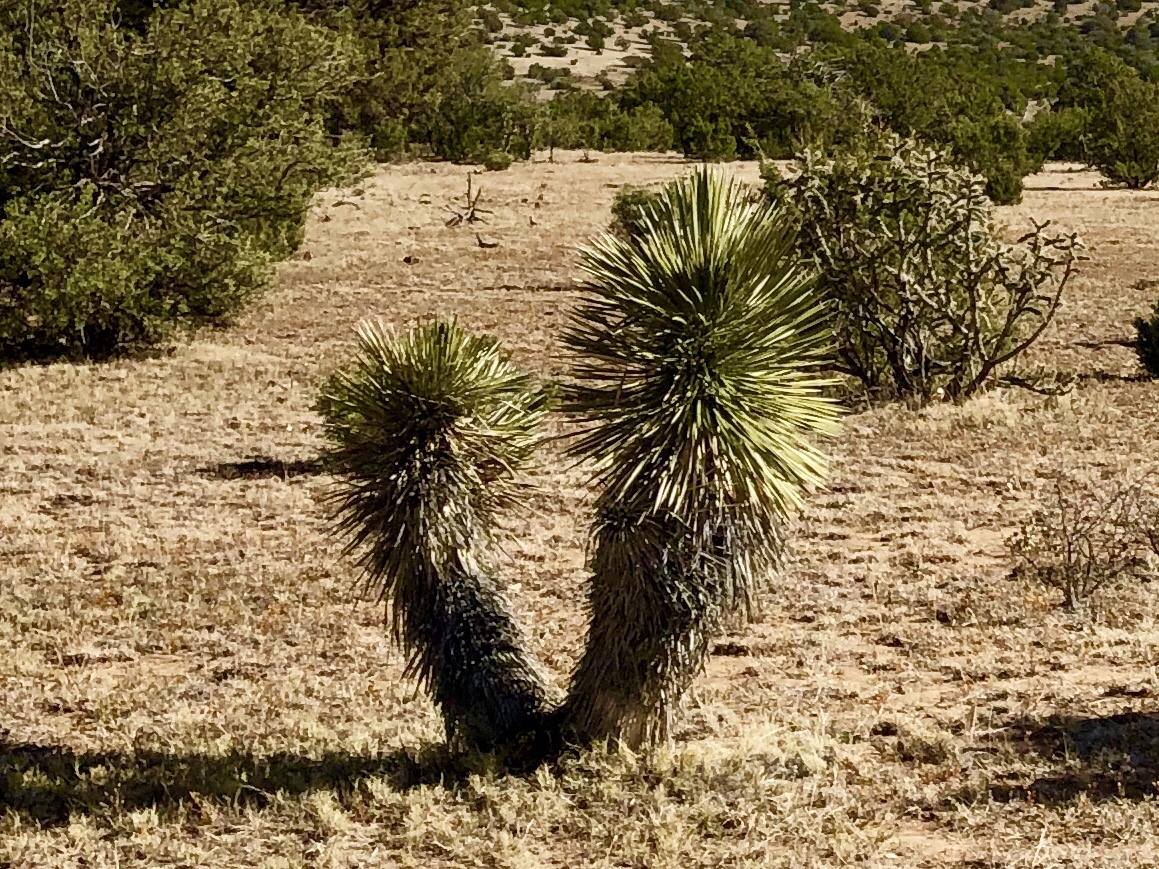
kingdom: Plantae
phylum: Tracheophyta
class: Liliopsida
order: Asparagales
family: Asparagaceae
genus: Yucca
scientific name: Yucca elata
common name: Palmella
